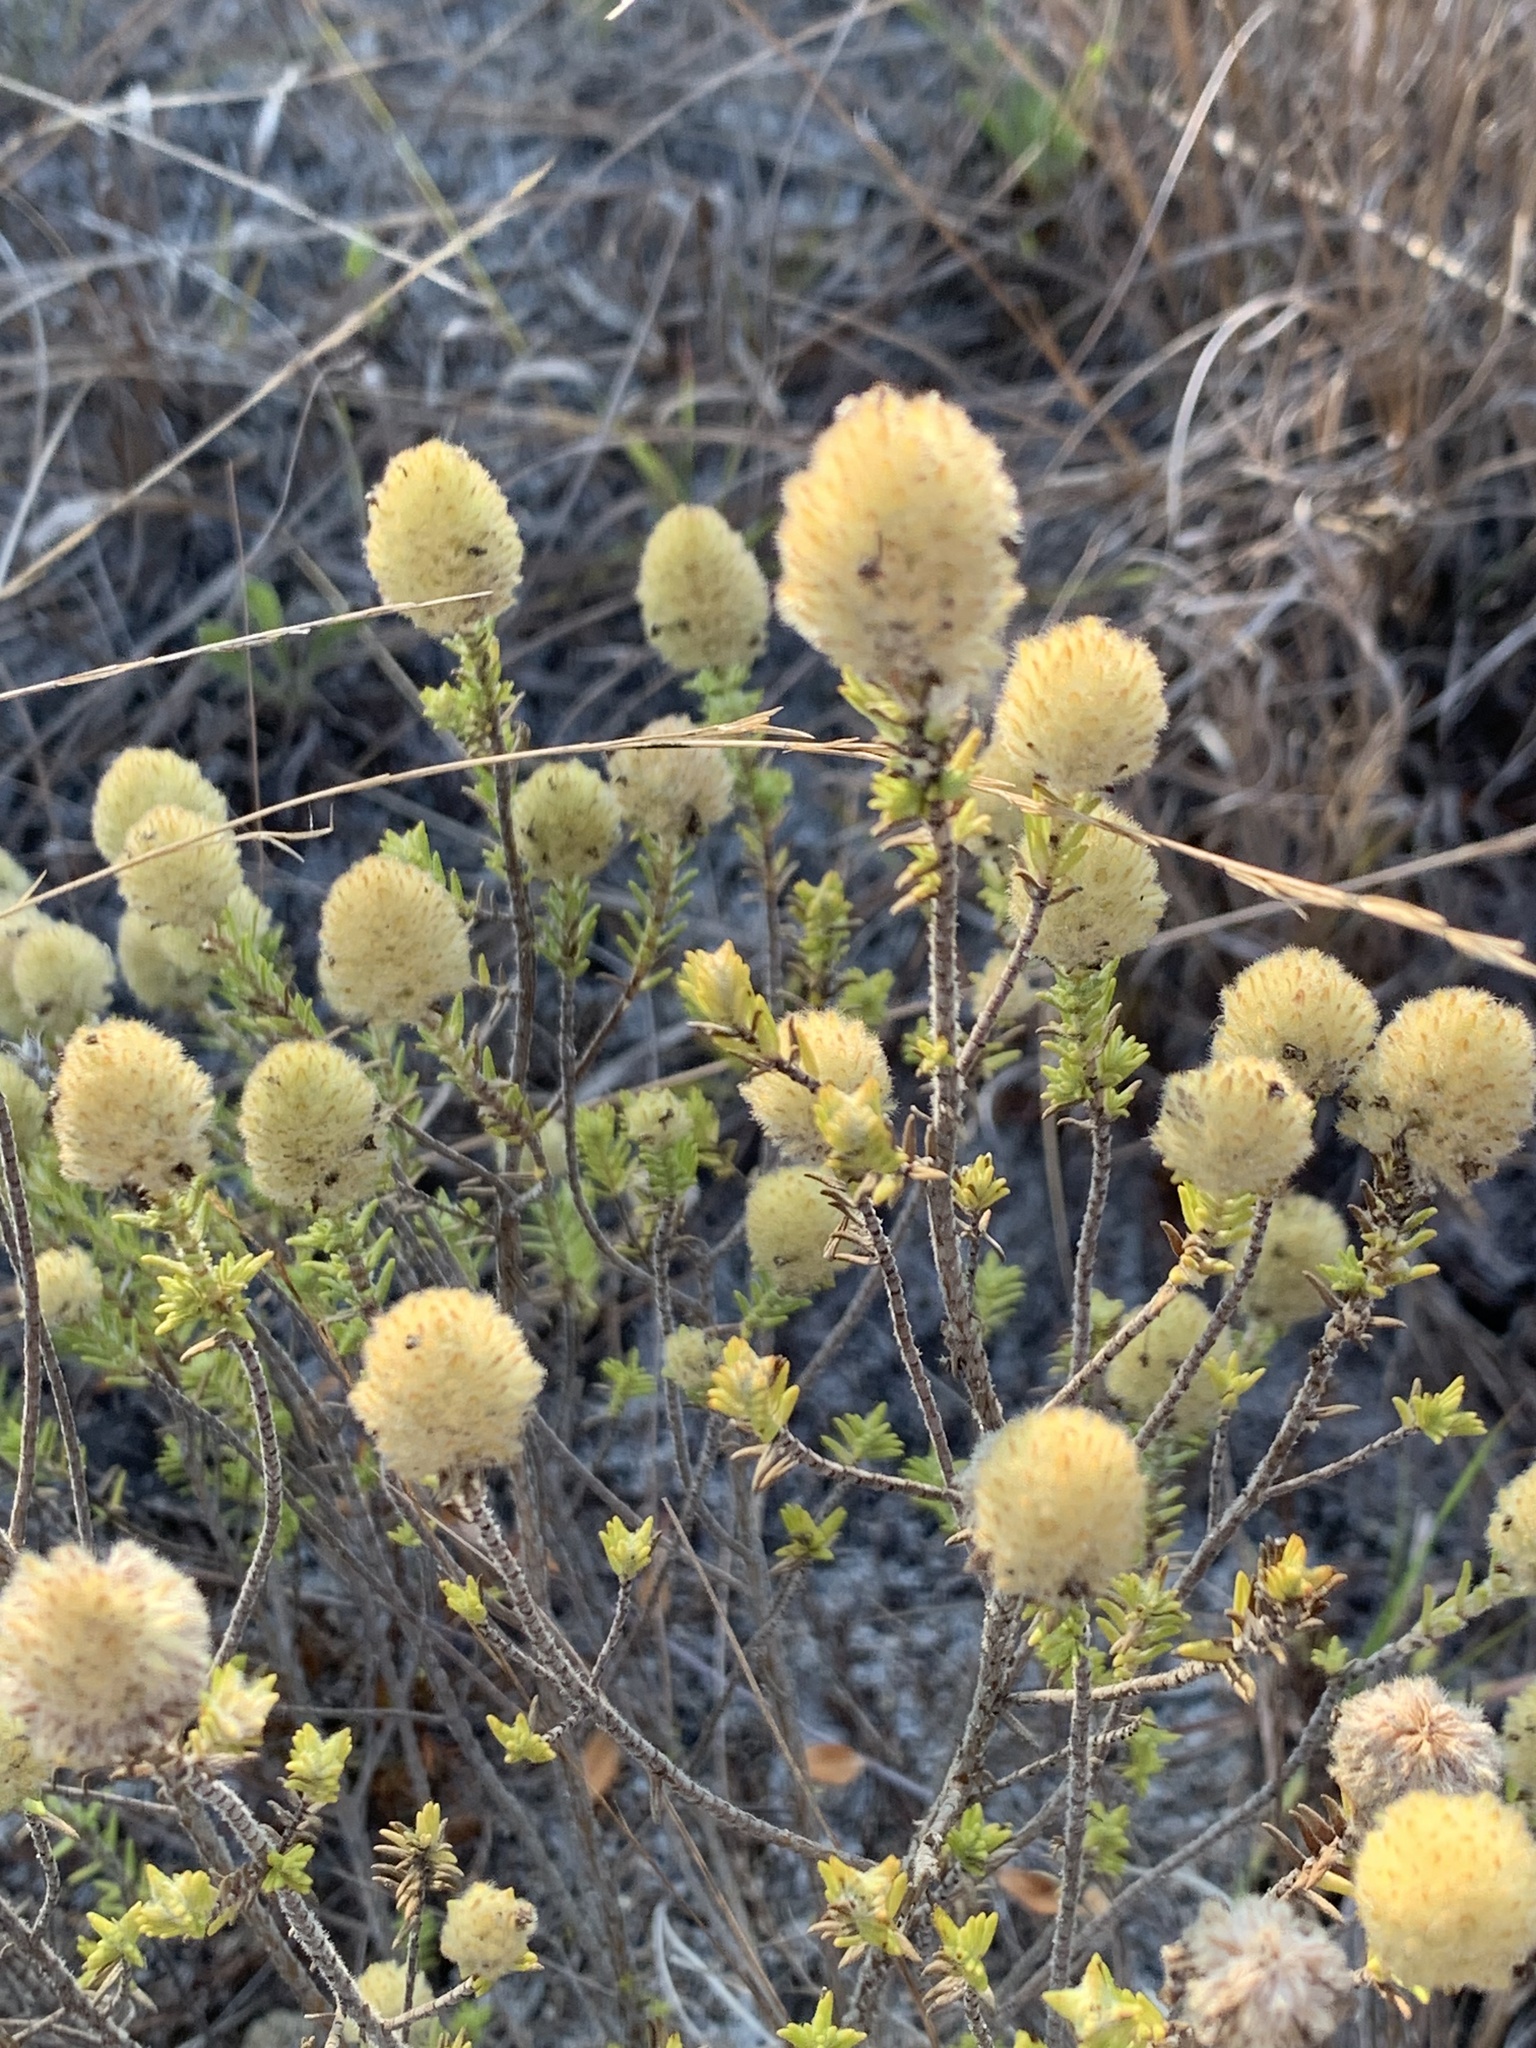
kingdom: Plantae
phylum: Tracheophyta
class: Magnoliopsida
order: Lamiales
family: Lamiaceae
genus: Piloblephis
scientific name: Piloblephis rigida
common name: Wild pennyroyal
